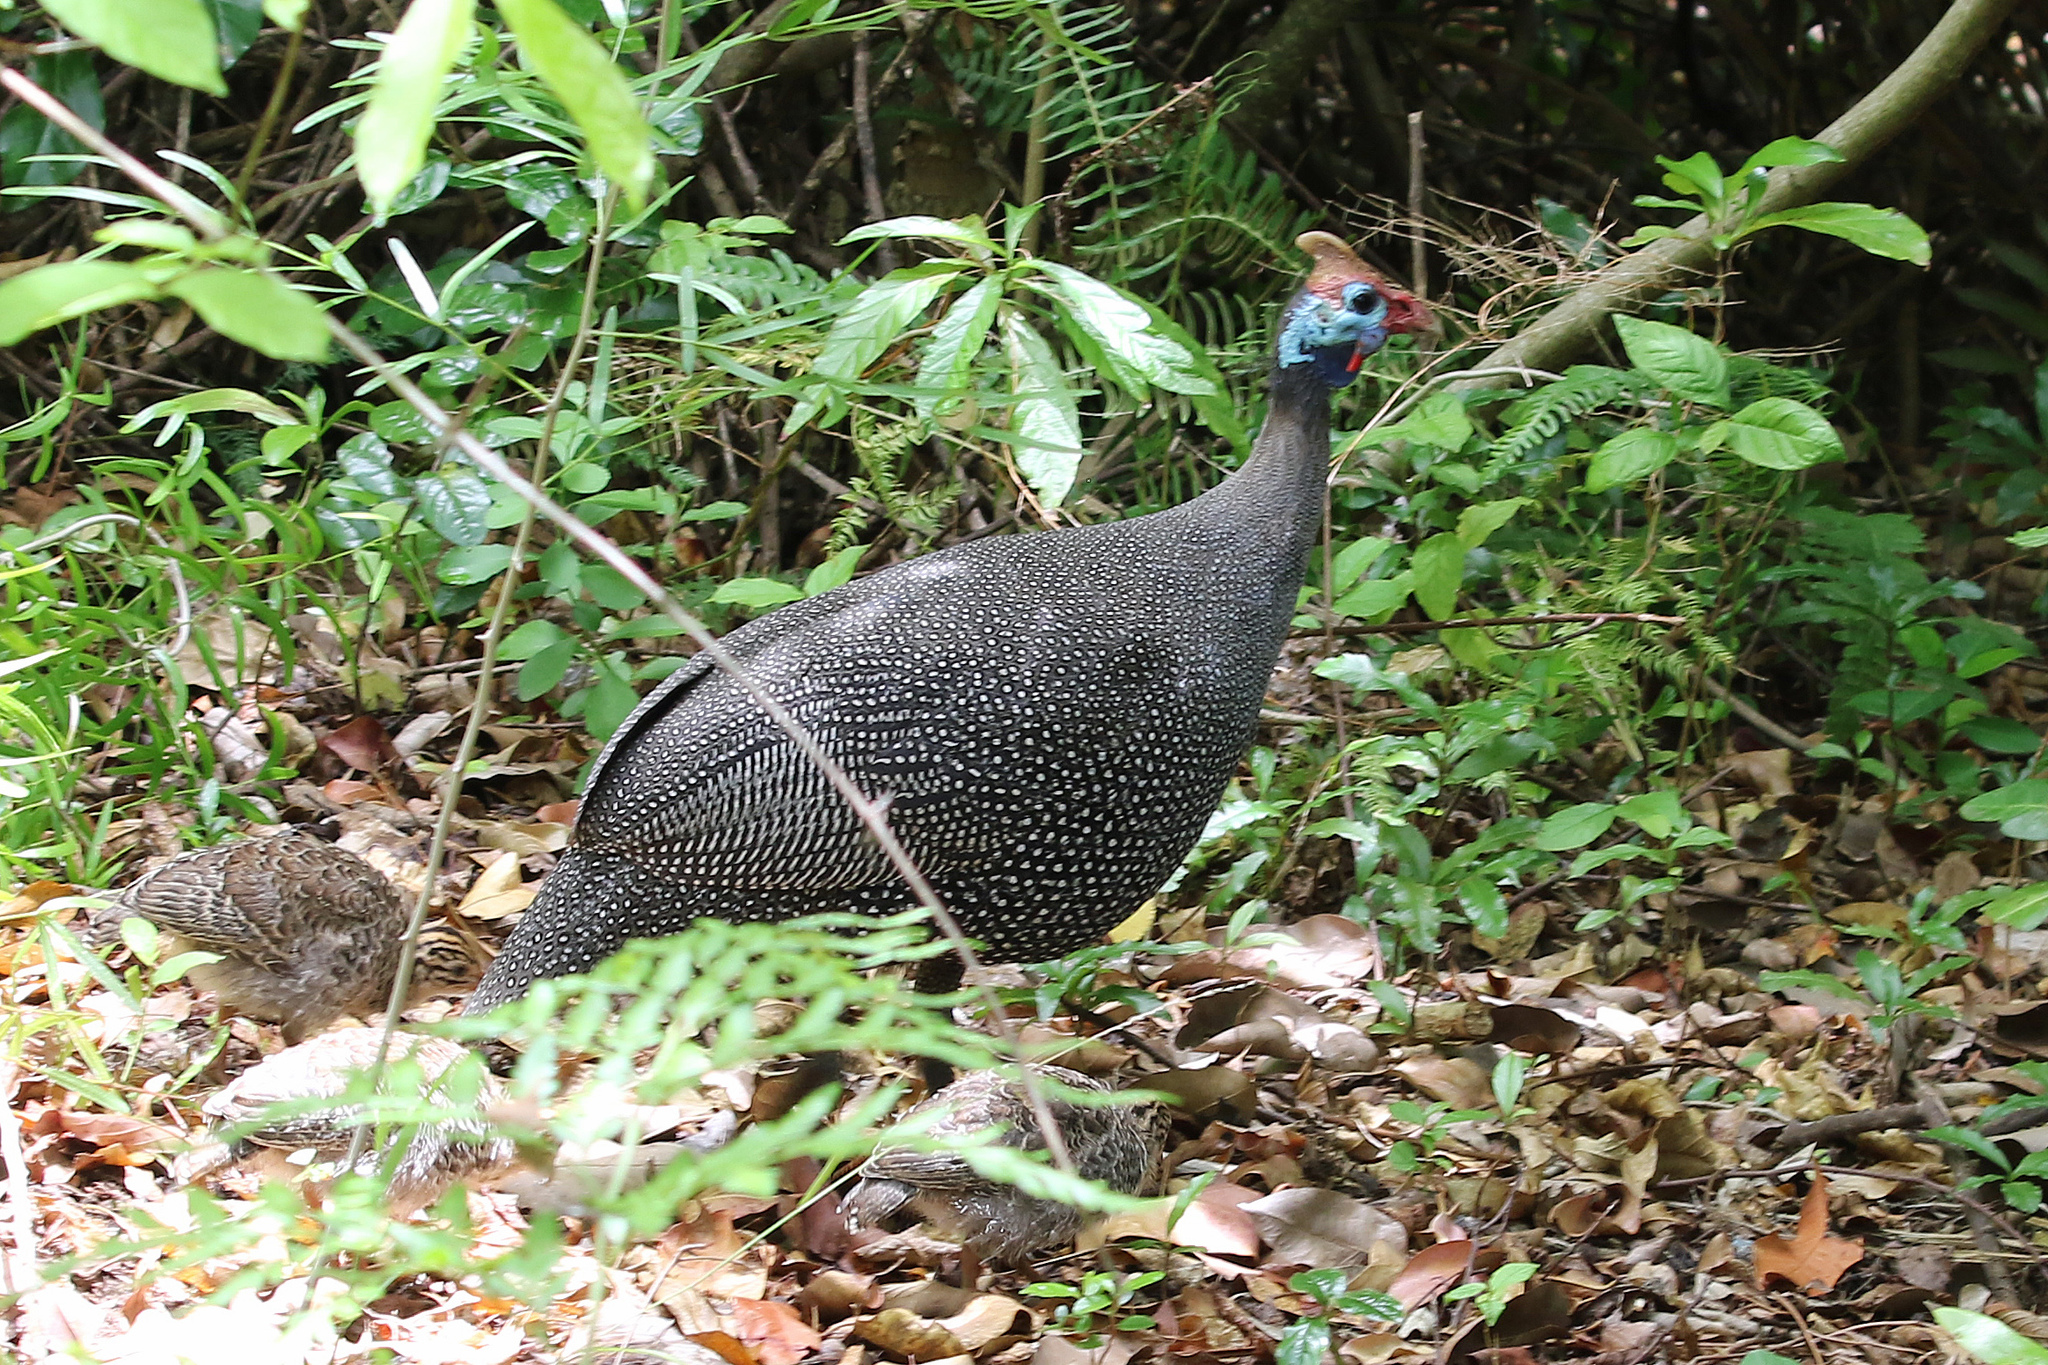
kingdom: Animalia
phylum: Chordata
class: Aves
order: Galliformes
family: Numididae
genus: Numida
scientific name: Numida meleagris
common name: Helmeted guineafowl
